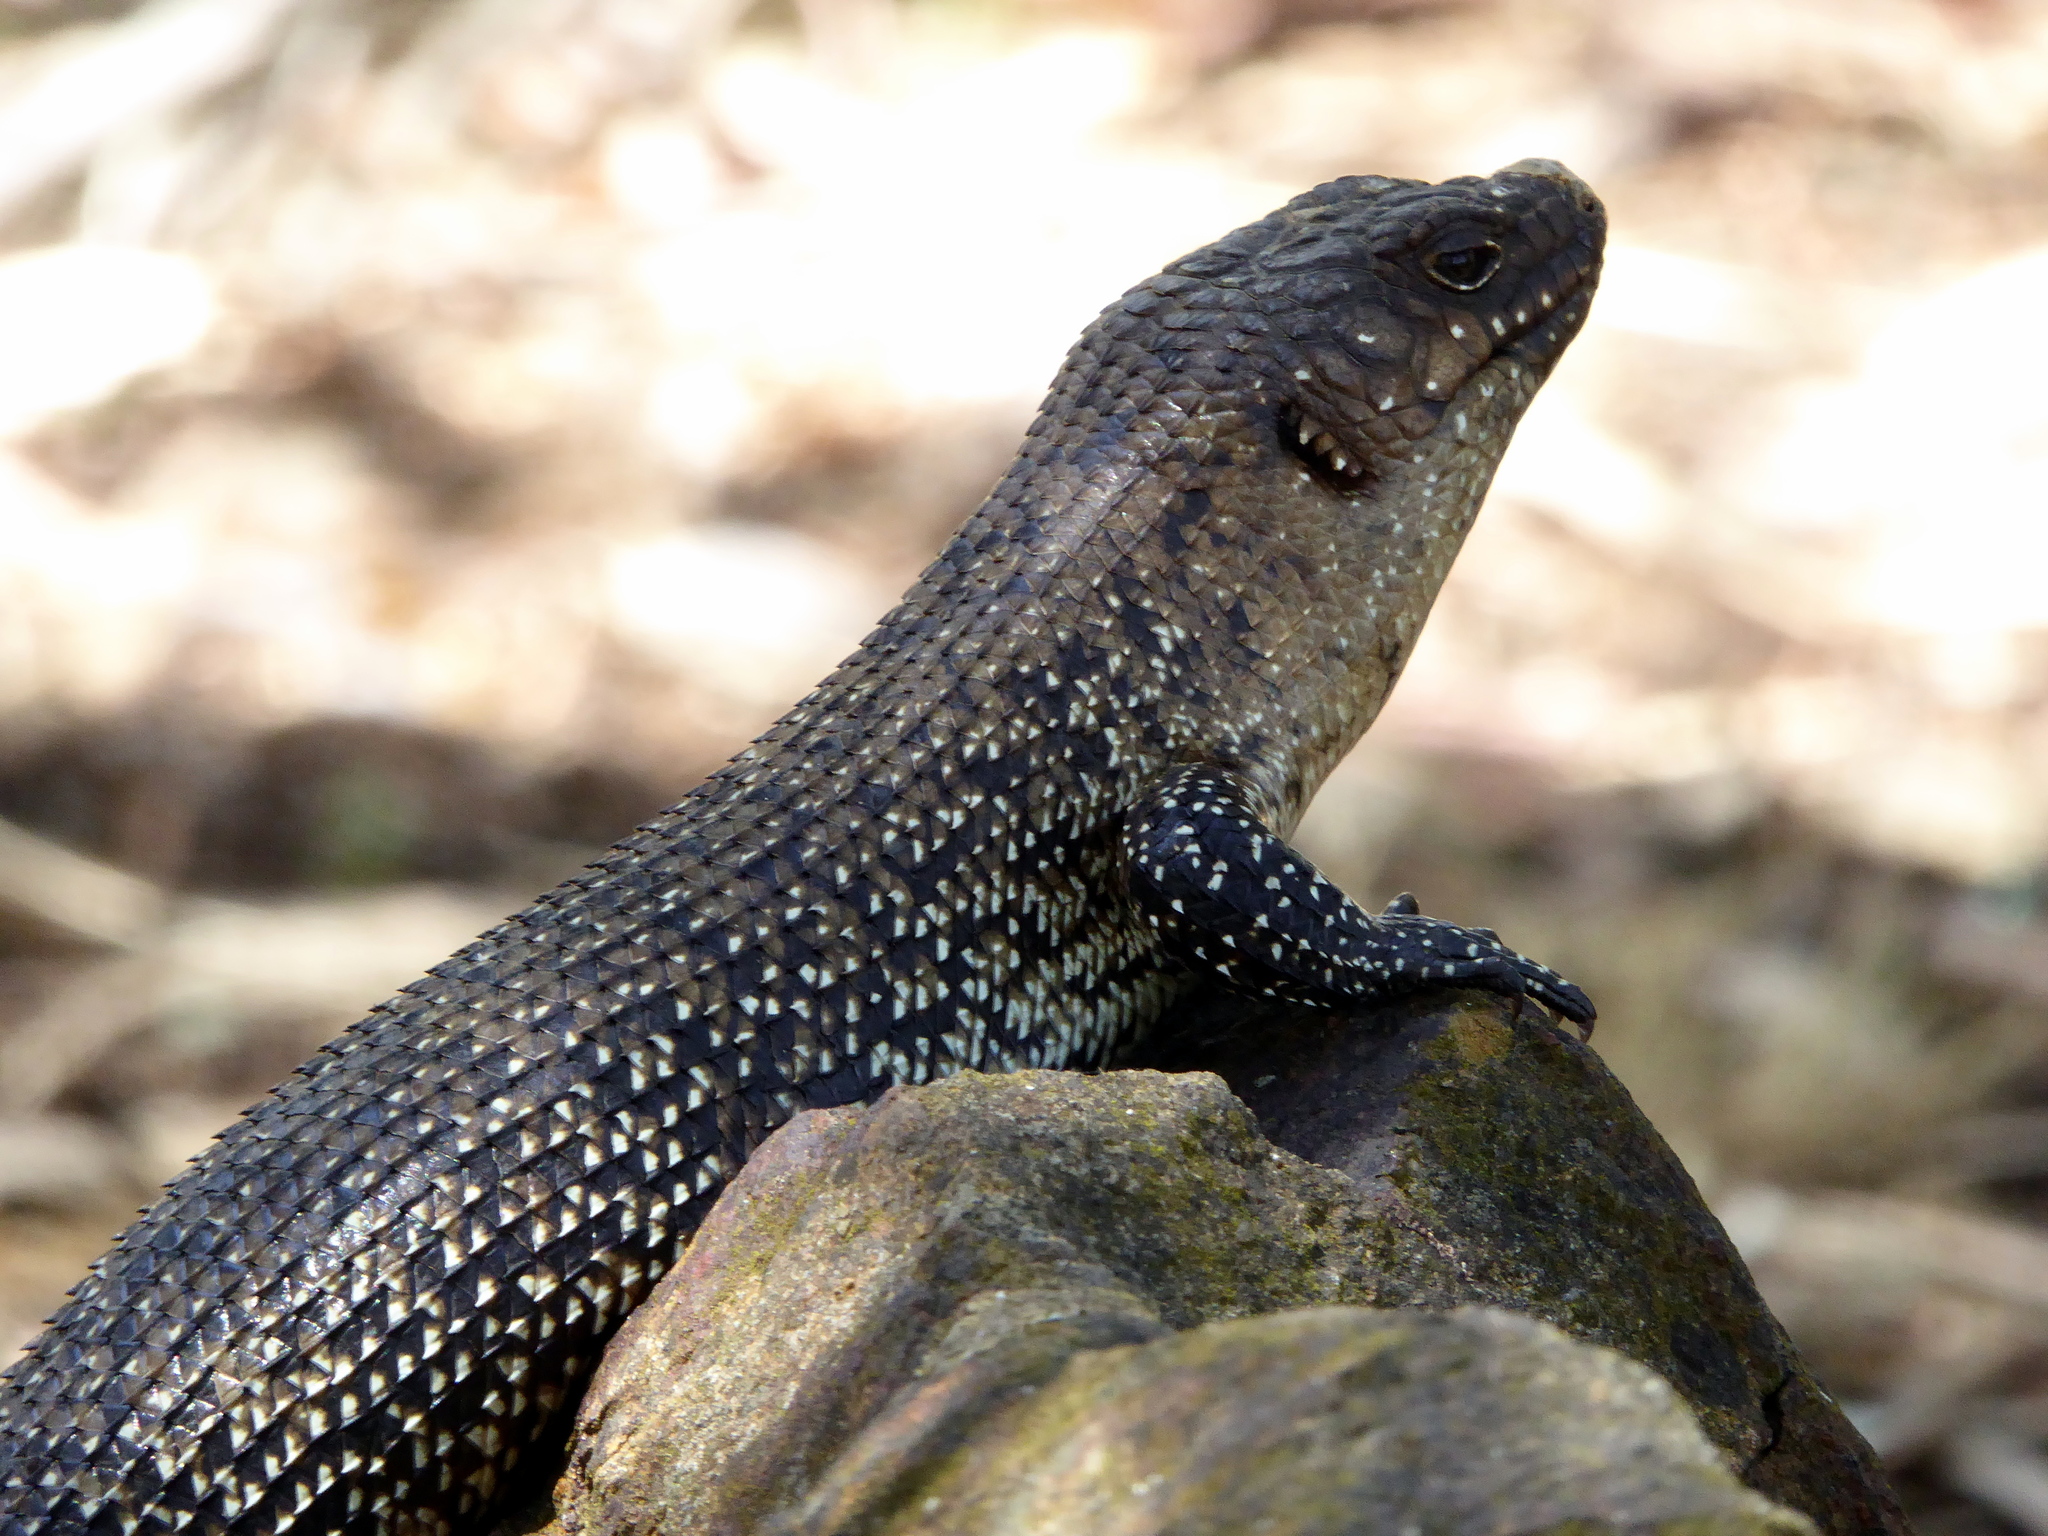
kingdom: Animalia
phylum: Chordata
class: Squamata
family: Scincidae
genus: Egernia
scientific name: Egernia cunninghami
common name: Cunningham's skink
